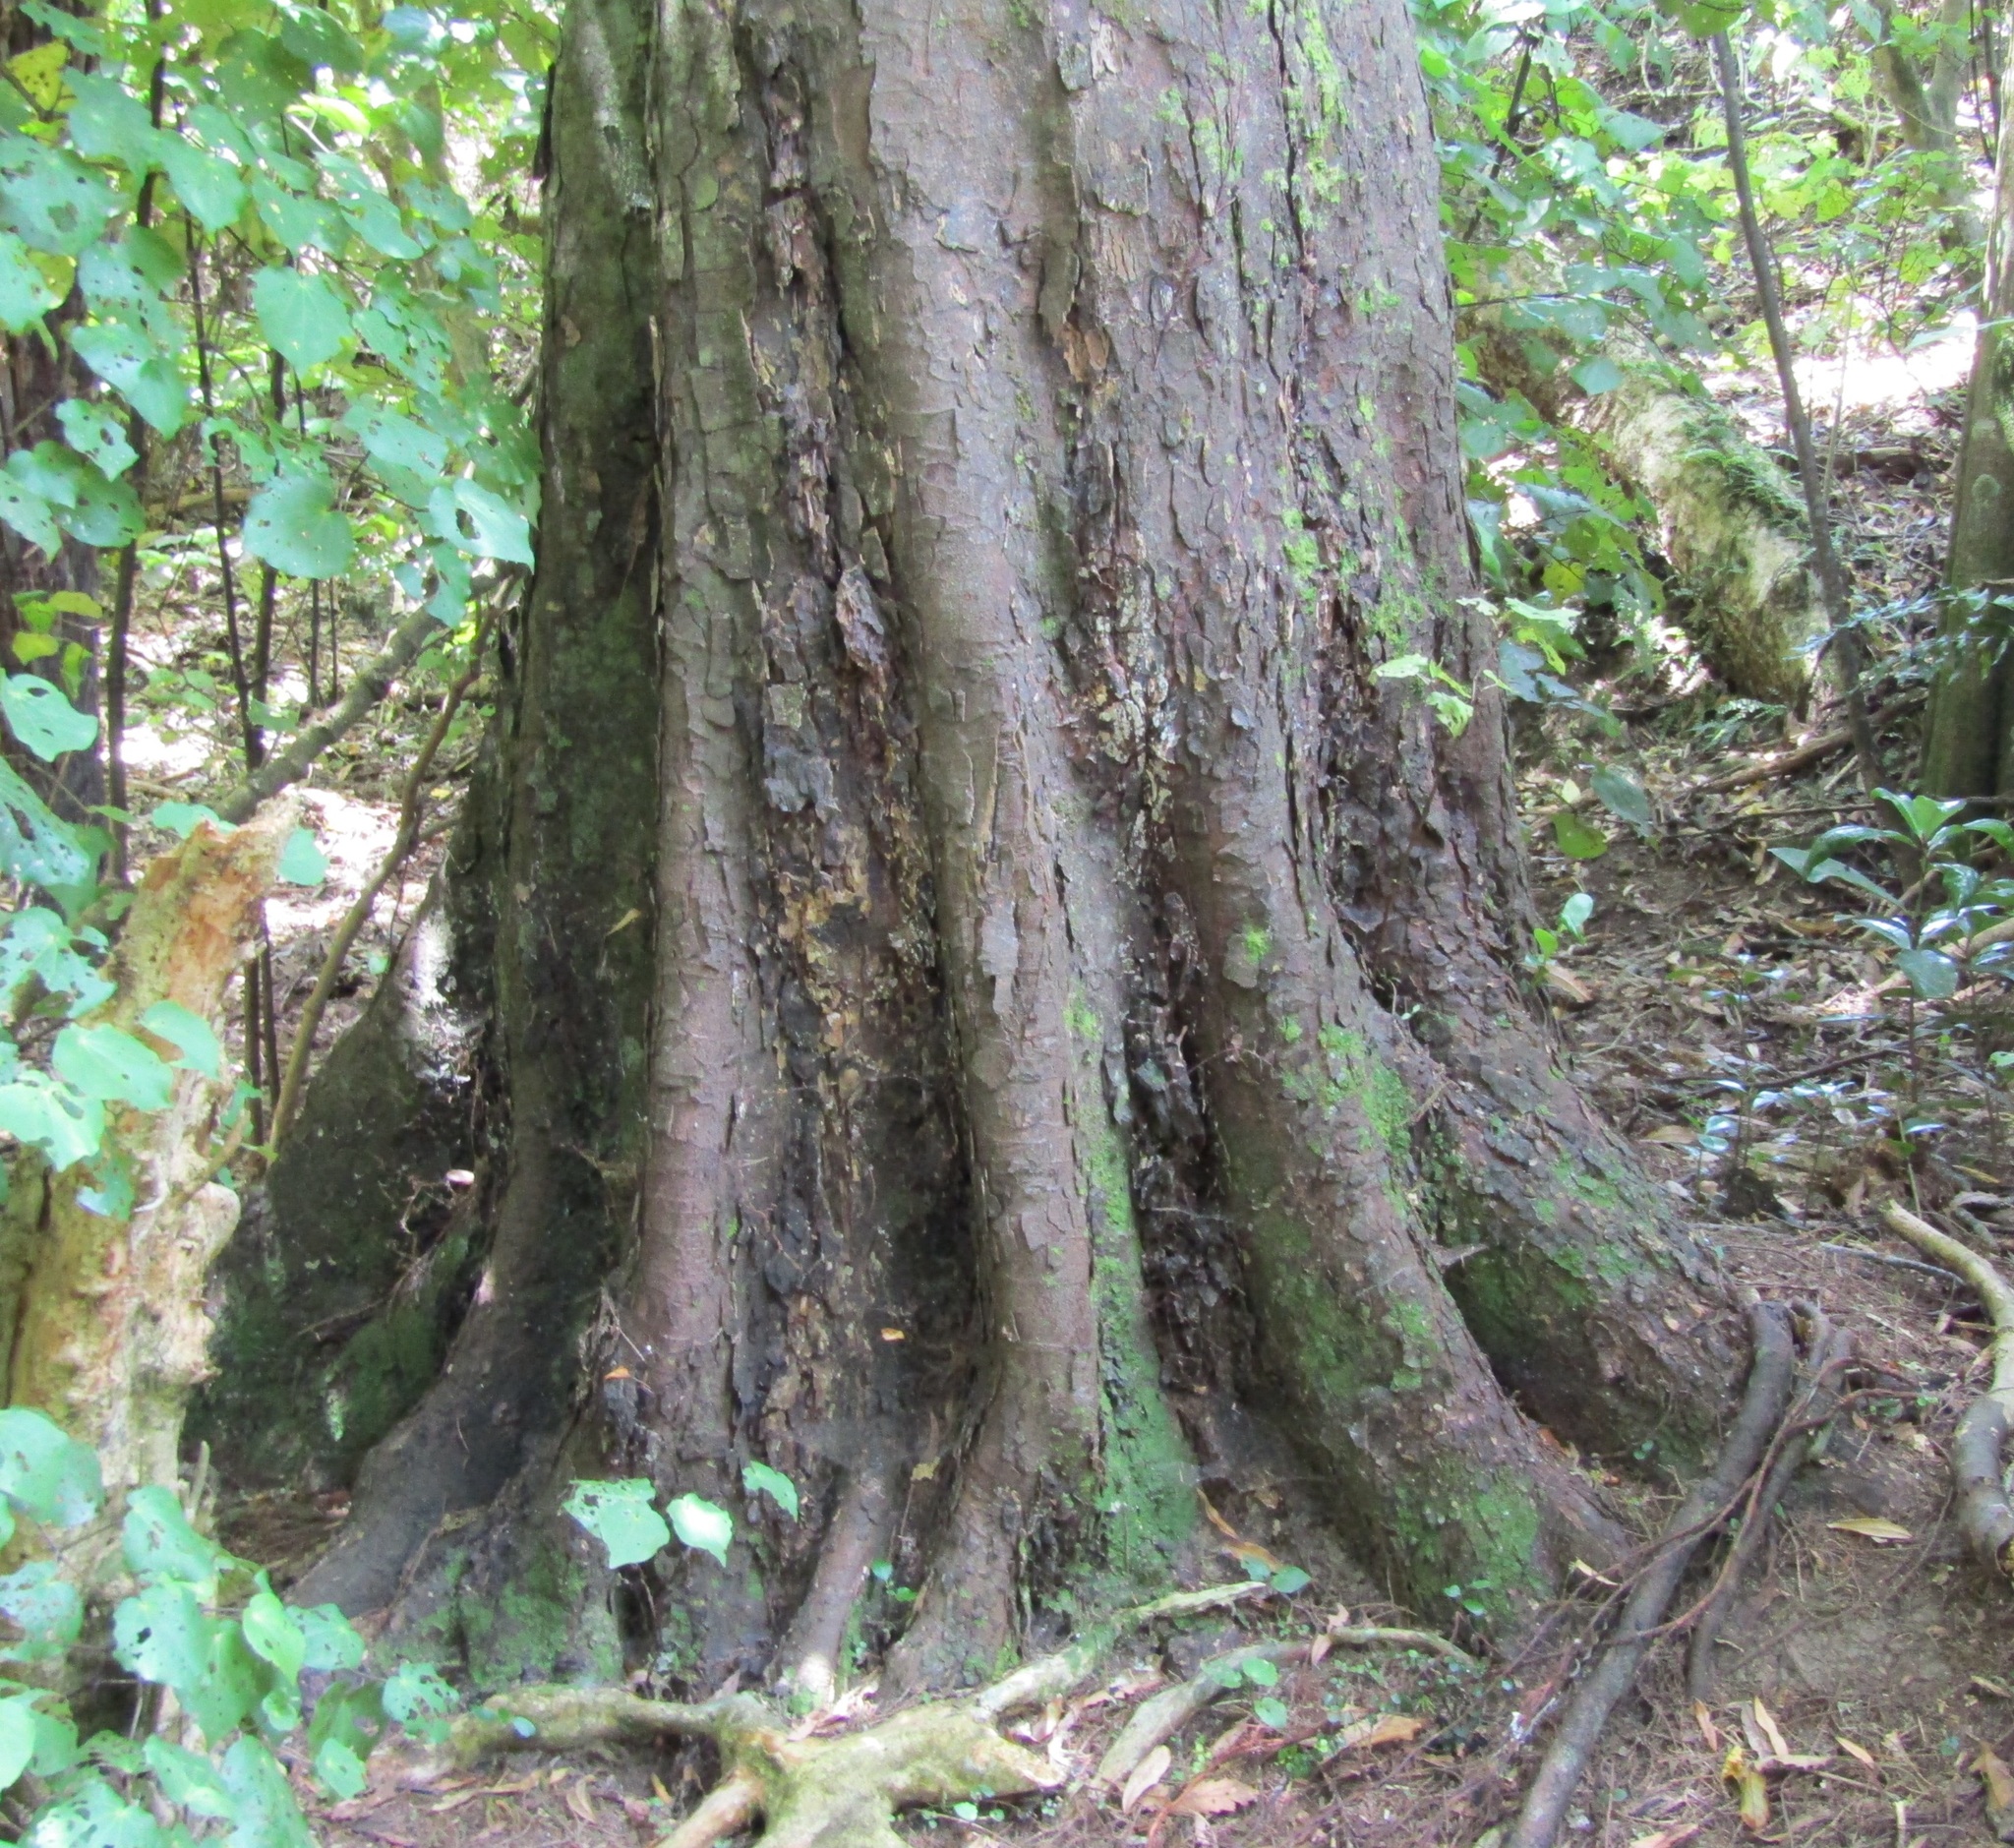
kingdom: Plantae
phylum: Tracheophyta
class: Pinopsida
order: Pinales
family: Podocarpaceae
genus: Dacrycarpus
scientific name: Dacrycarpus dacrydioides
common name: White pine
